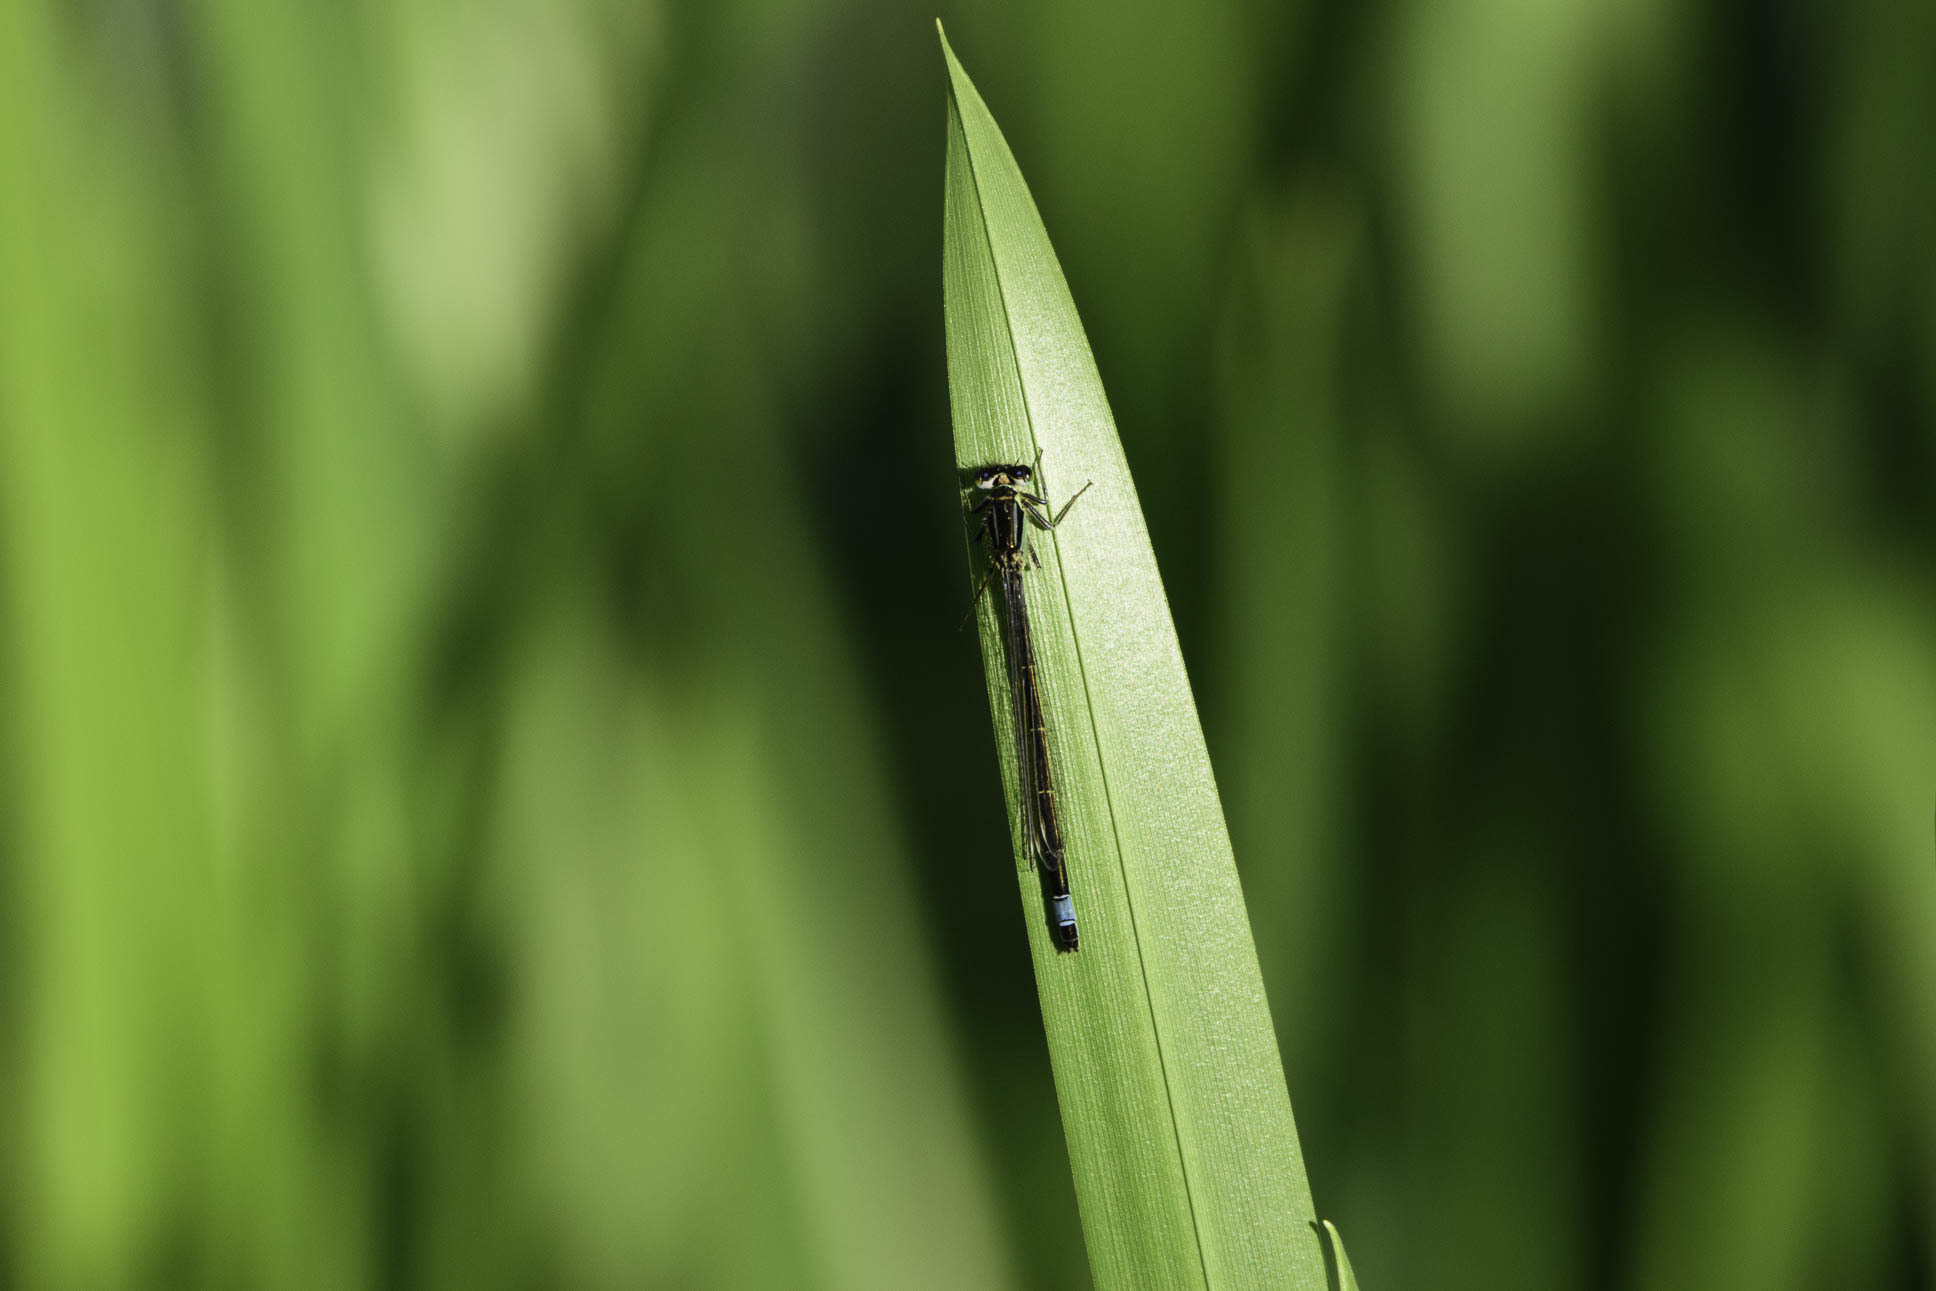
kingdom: Animalia
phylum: Arthropoda
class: Insecta
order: Odonata
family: Coenagrionidae
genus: Ischnura
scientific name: Ischnura elegans
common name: Blue-tailed damselfly
